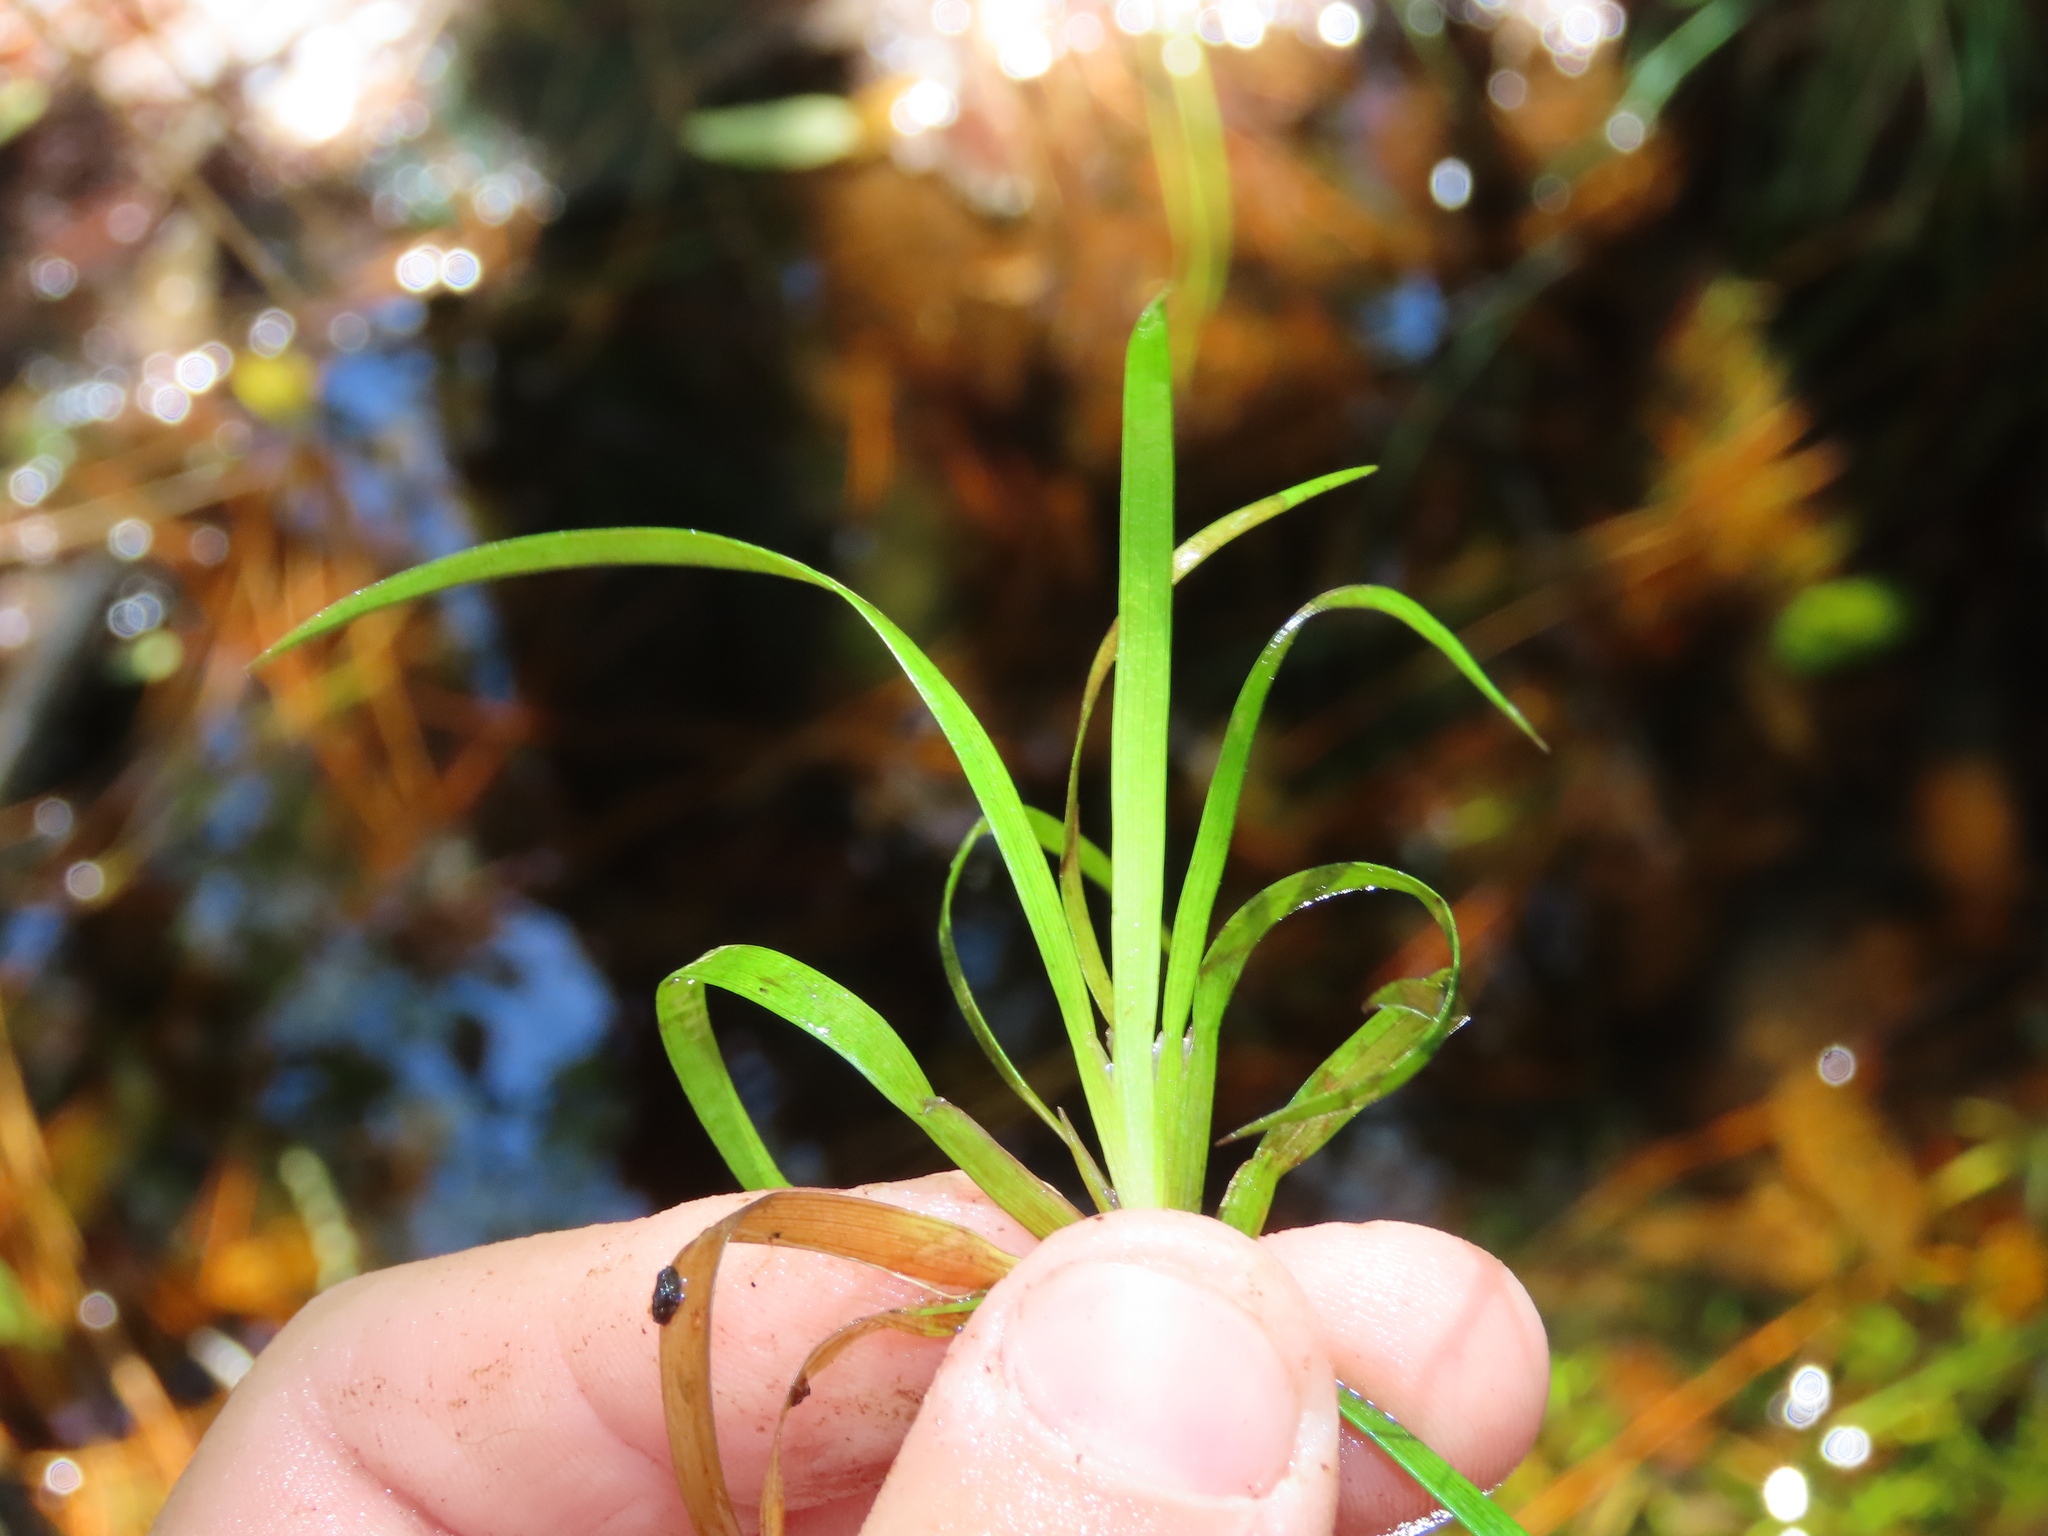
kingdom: Plantae
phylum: Tracheophyta
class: Liliopsida
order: Poales
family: Juncaceae
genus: Juncus
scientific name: Juncus repens
